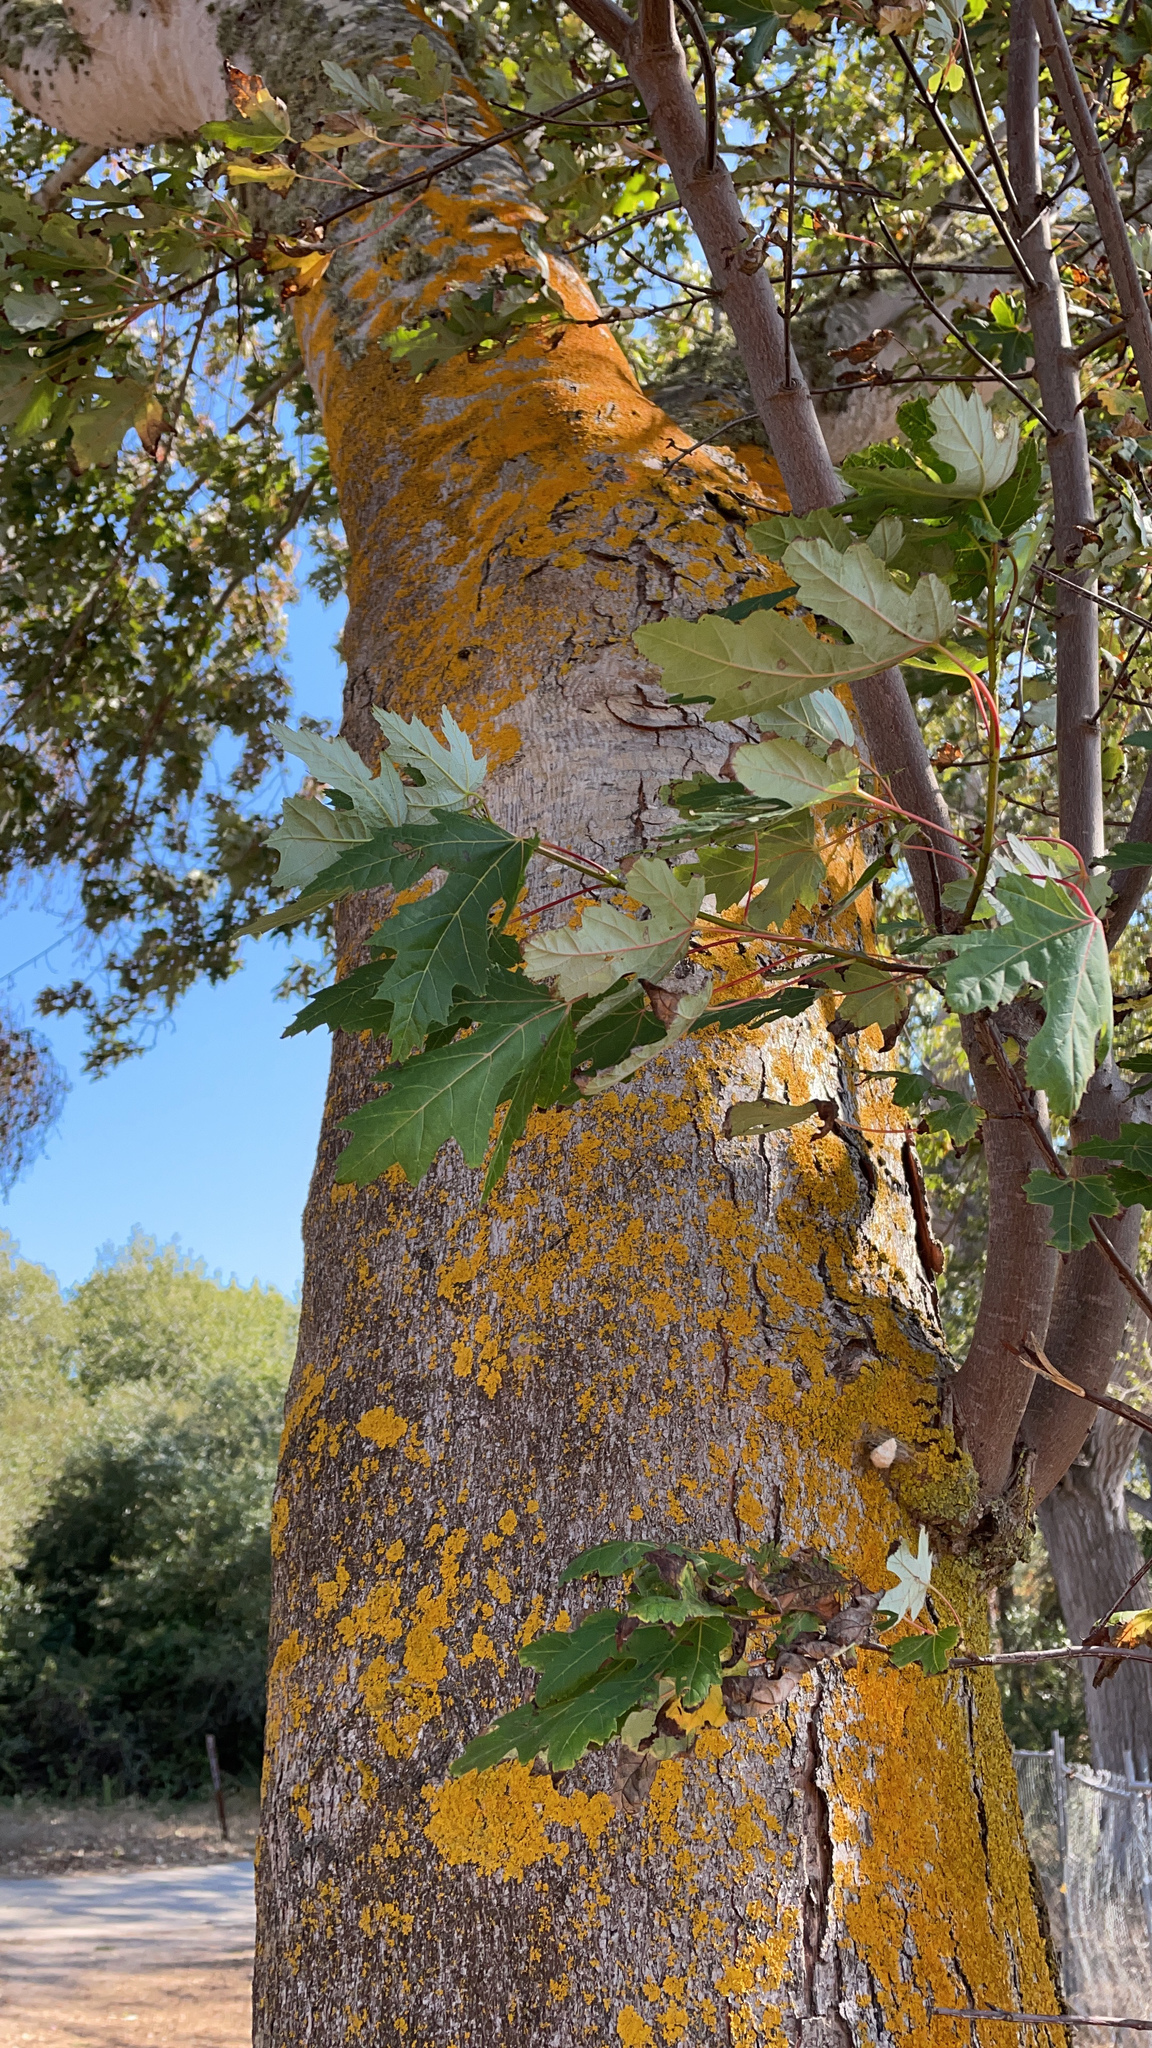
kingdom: Fungi
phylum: Ascomycota
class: Lecanoromycetes
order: Teloschistales
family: Teloschistaceae
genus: Xanthoria
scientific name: Xanthoria parietina
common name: Common orange lichen
